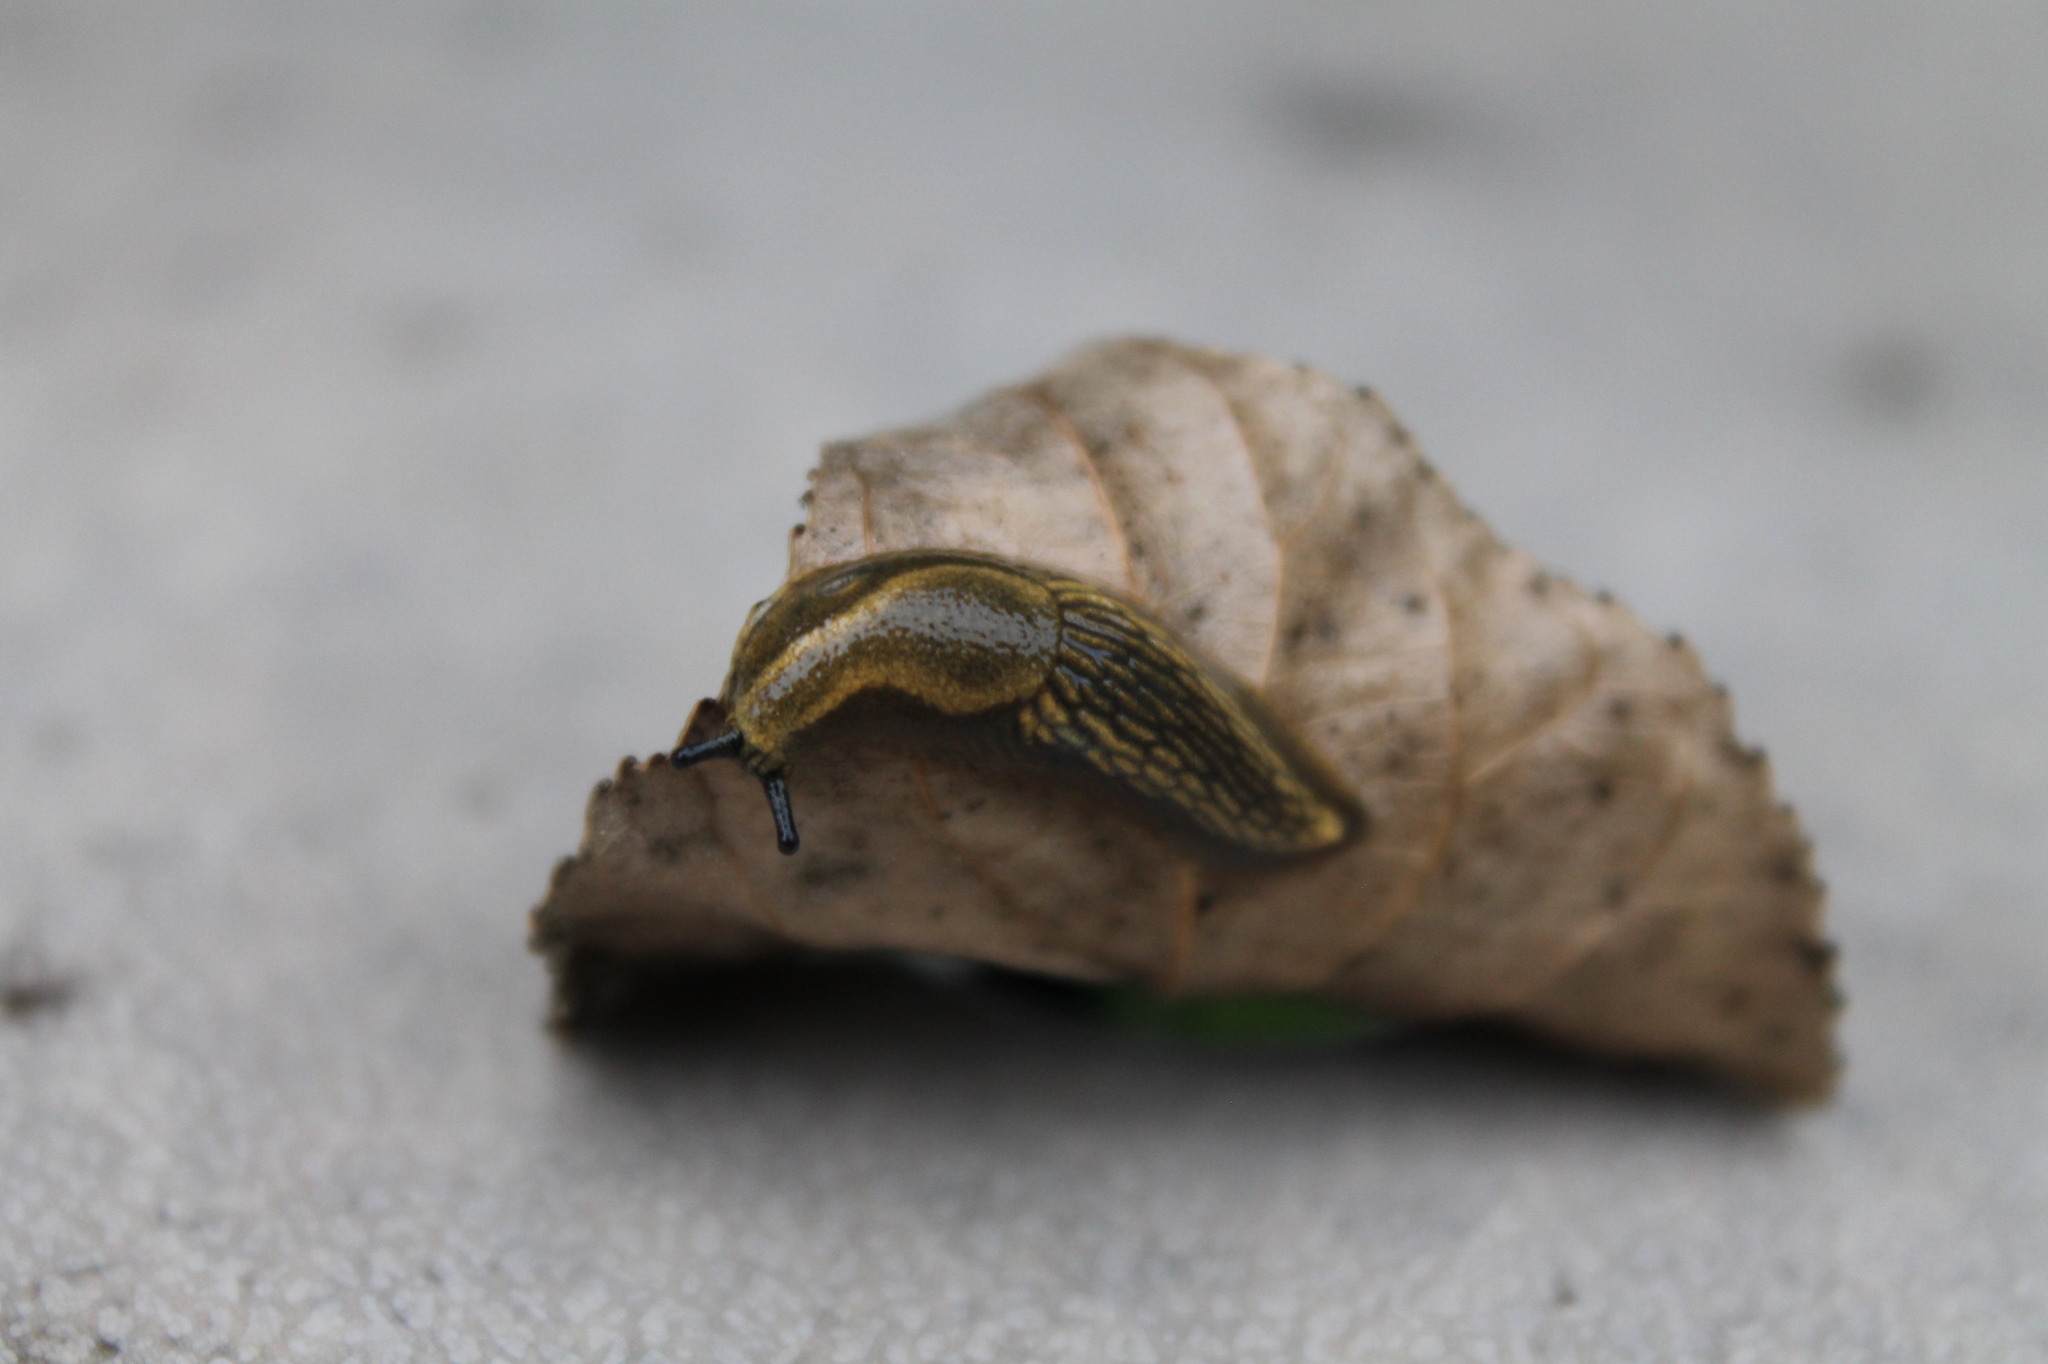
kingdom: Animalia
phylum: Mollusca
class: Gastropoda
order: Stylommatophora
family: Arionidae
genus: Arion
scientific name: Arion vulgaris
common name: Lusitanian slug
